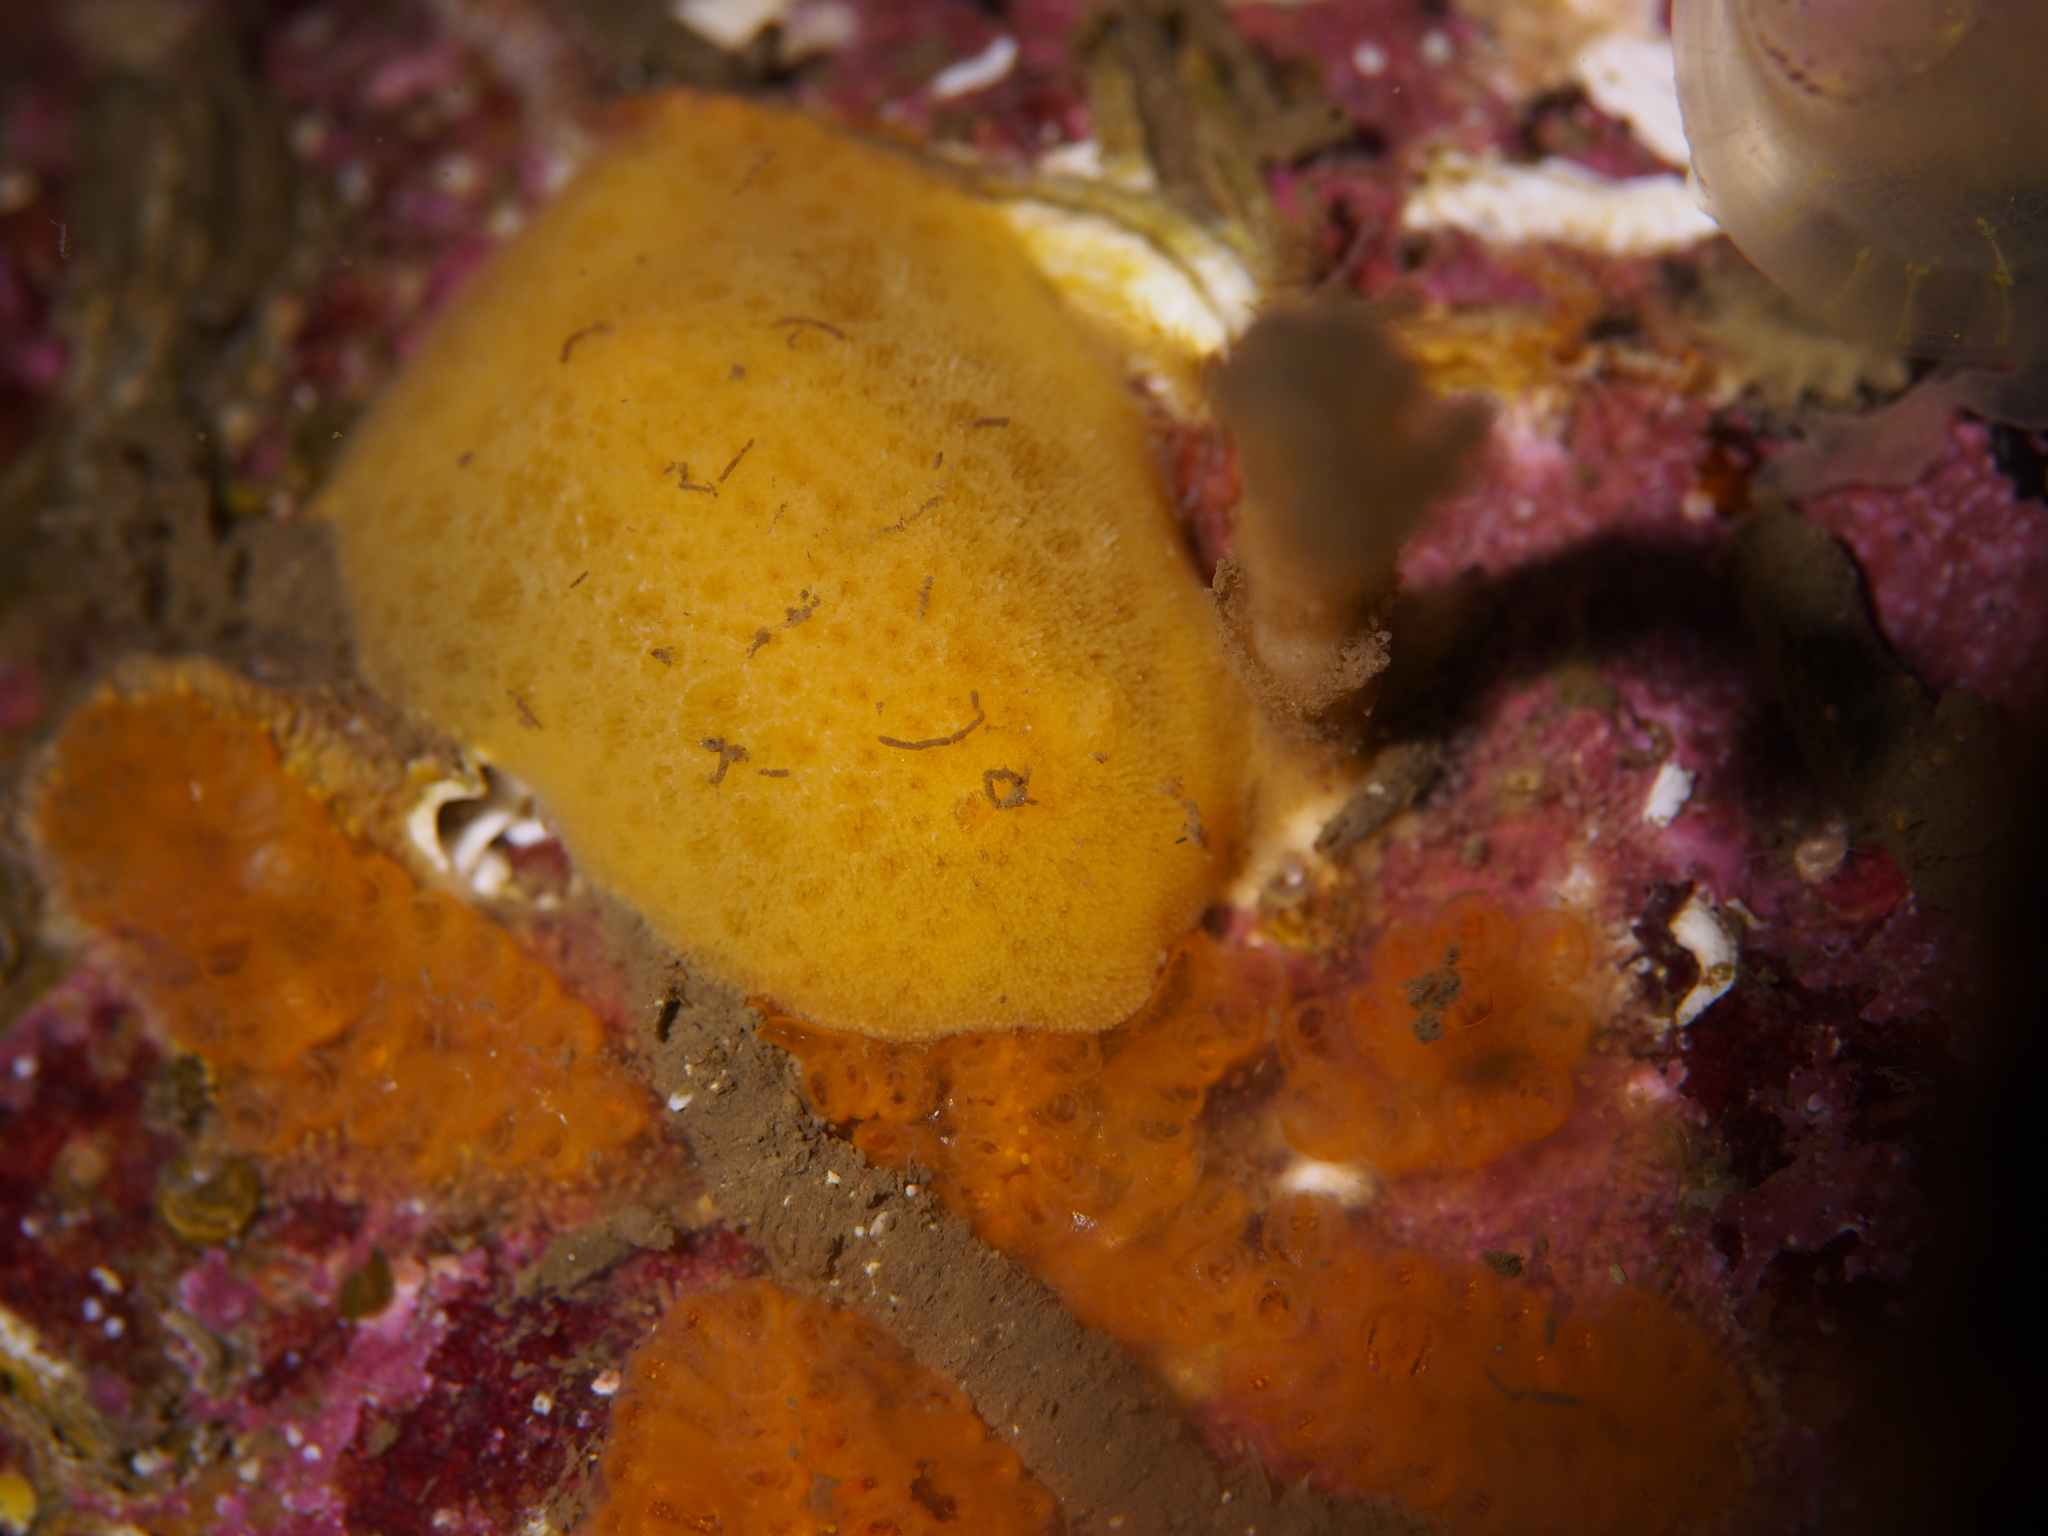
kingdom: Animalia
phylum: Mollusca
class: Gastropoda
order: Nudibranchia
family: Discodorididae
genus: Jorunna
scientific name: Jorunna tomentosa
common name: Grey sea slug
